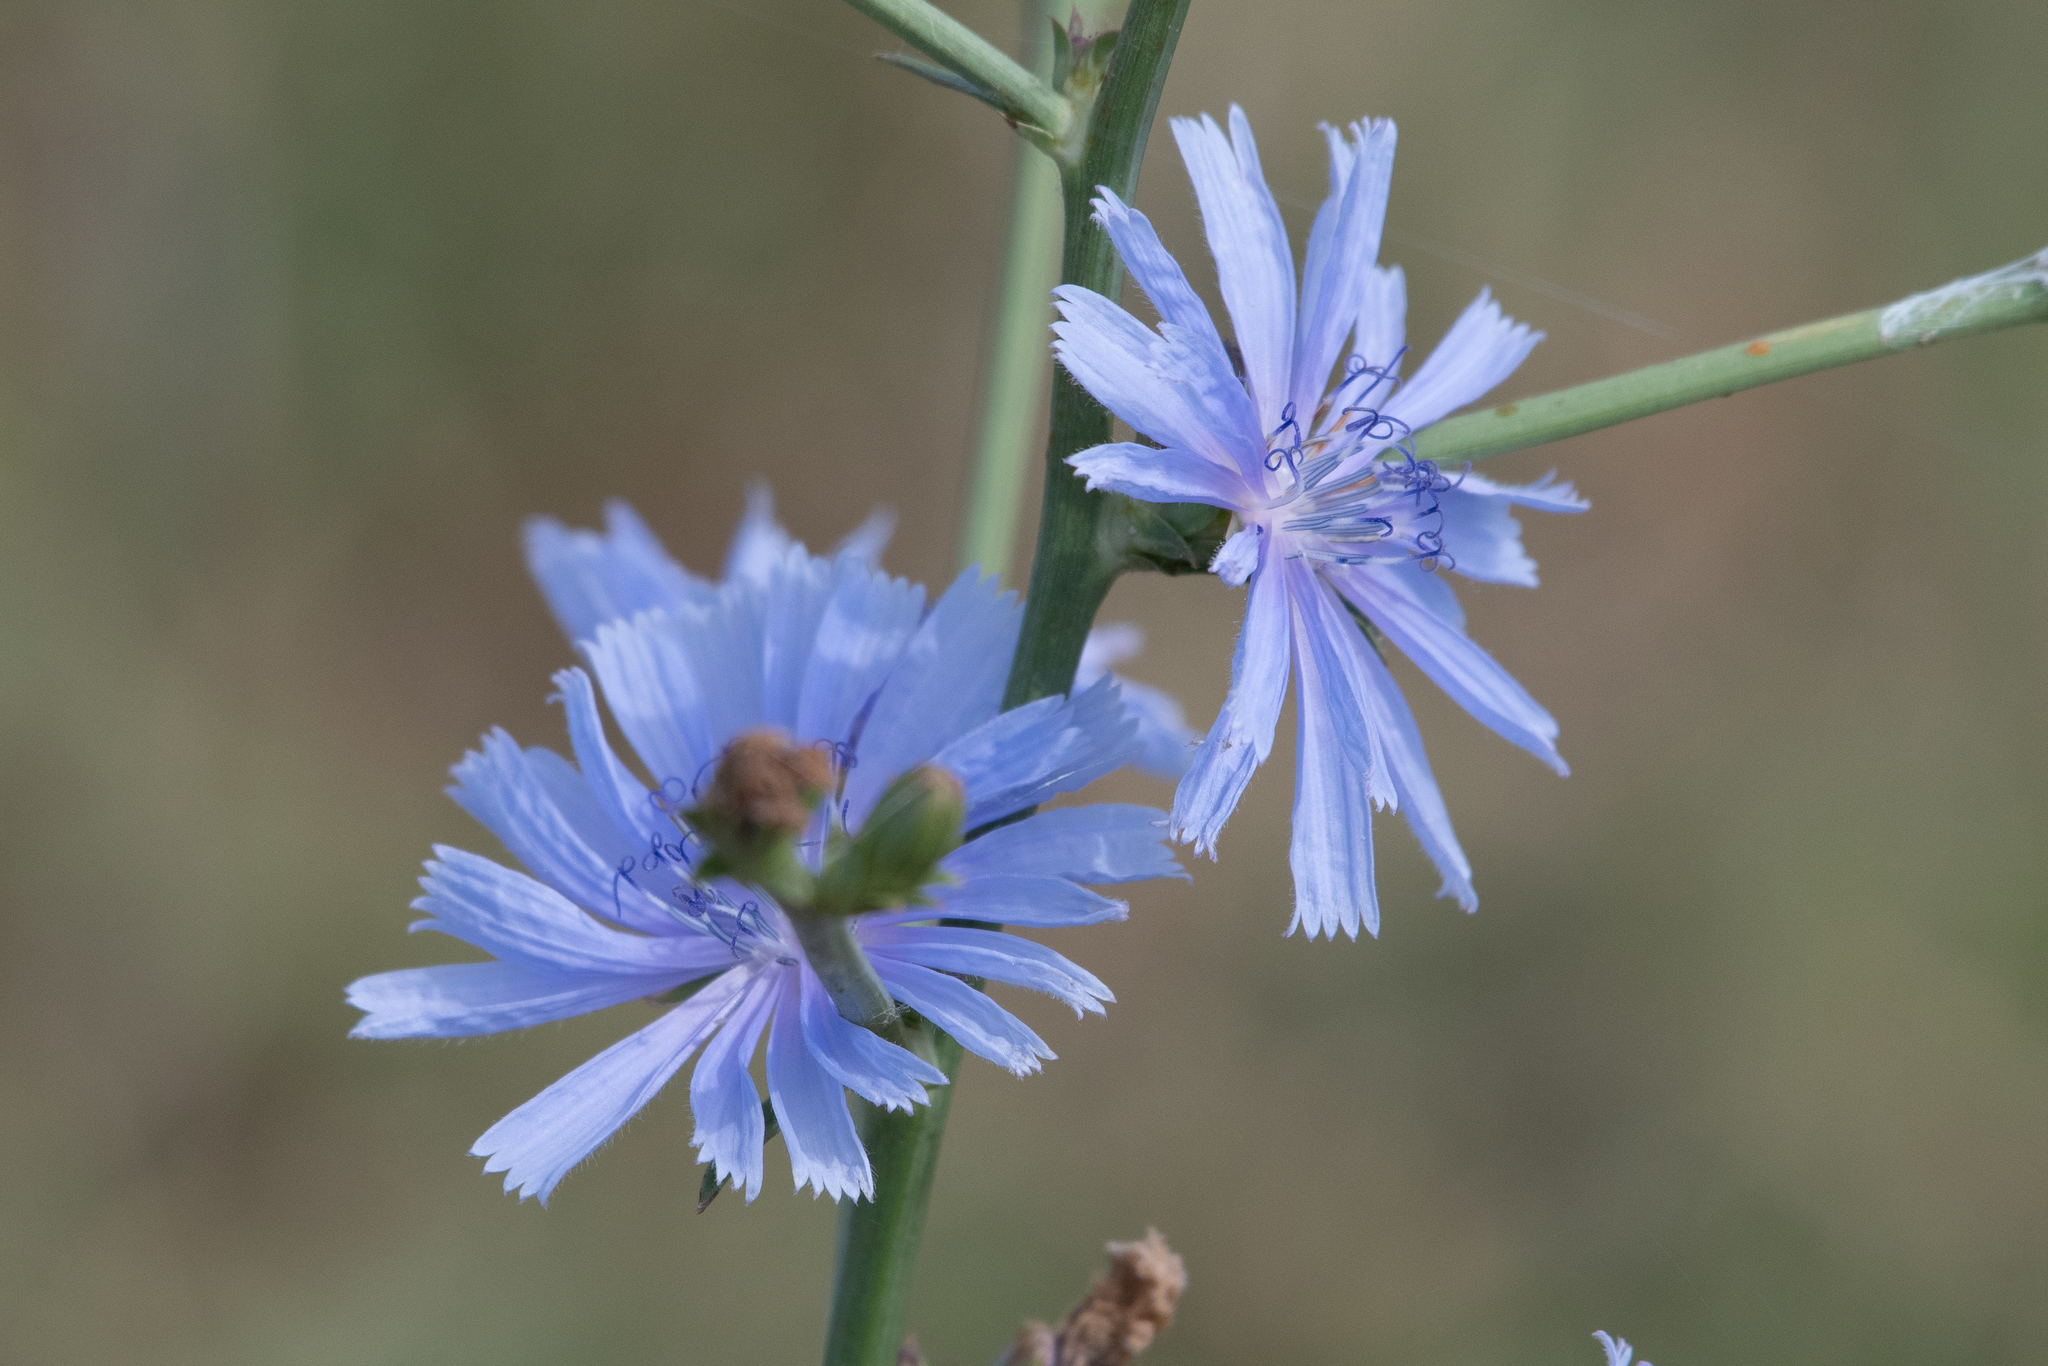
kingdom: Plantae
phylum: Tracheophyta
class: Magnoliopsida
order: Asterales
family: Asteraceae
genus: Cichorium
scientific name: Cichorium intybus
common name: Chicory
